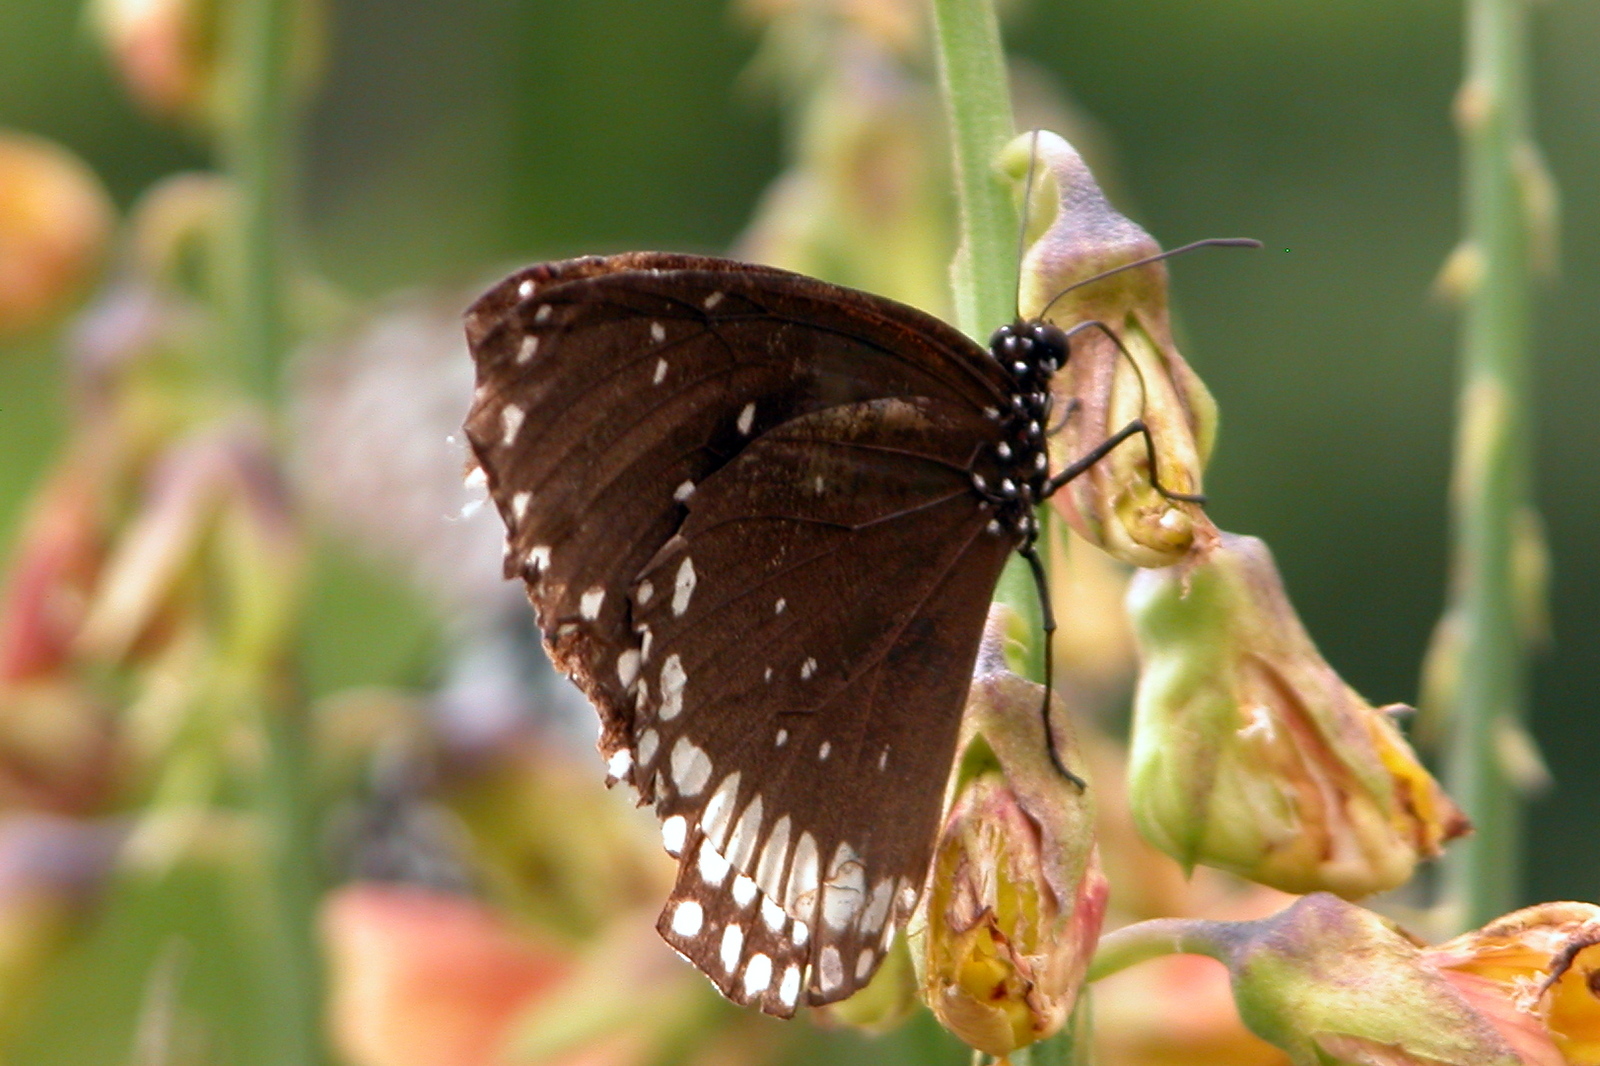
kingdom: Animalia
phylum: Arthropoda
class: Insecta
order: Lepidoptera
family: Nymphalidae
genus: Euploea
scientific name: Euploea sylvester
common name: Double-branded crow butterfly
